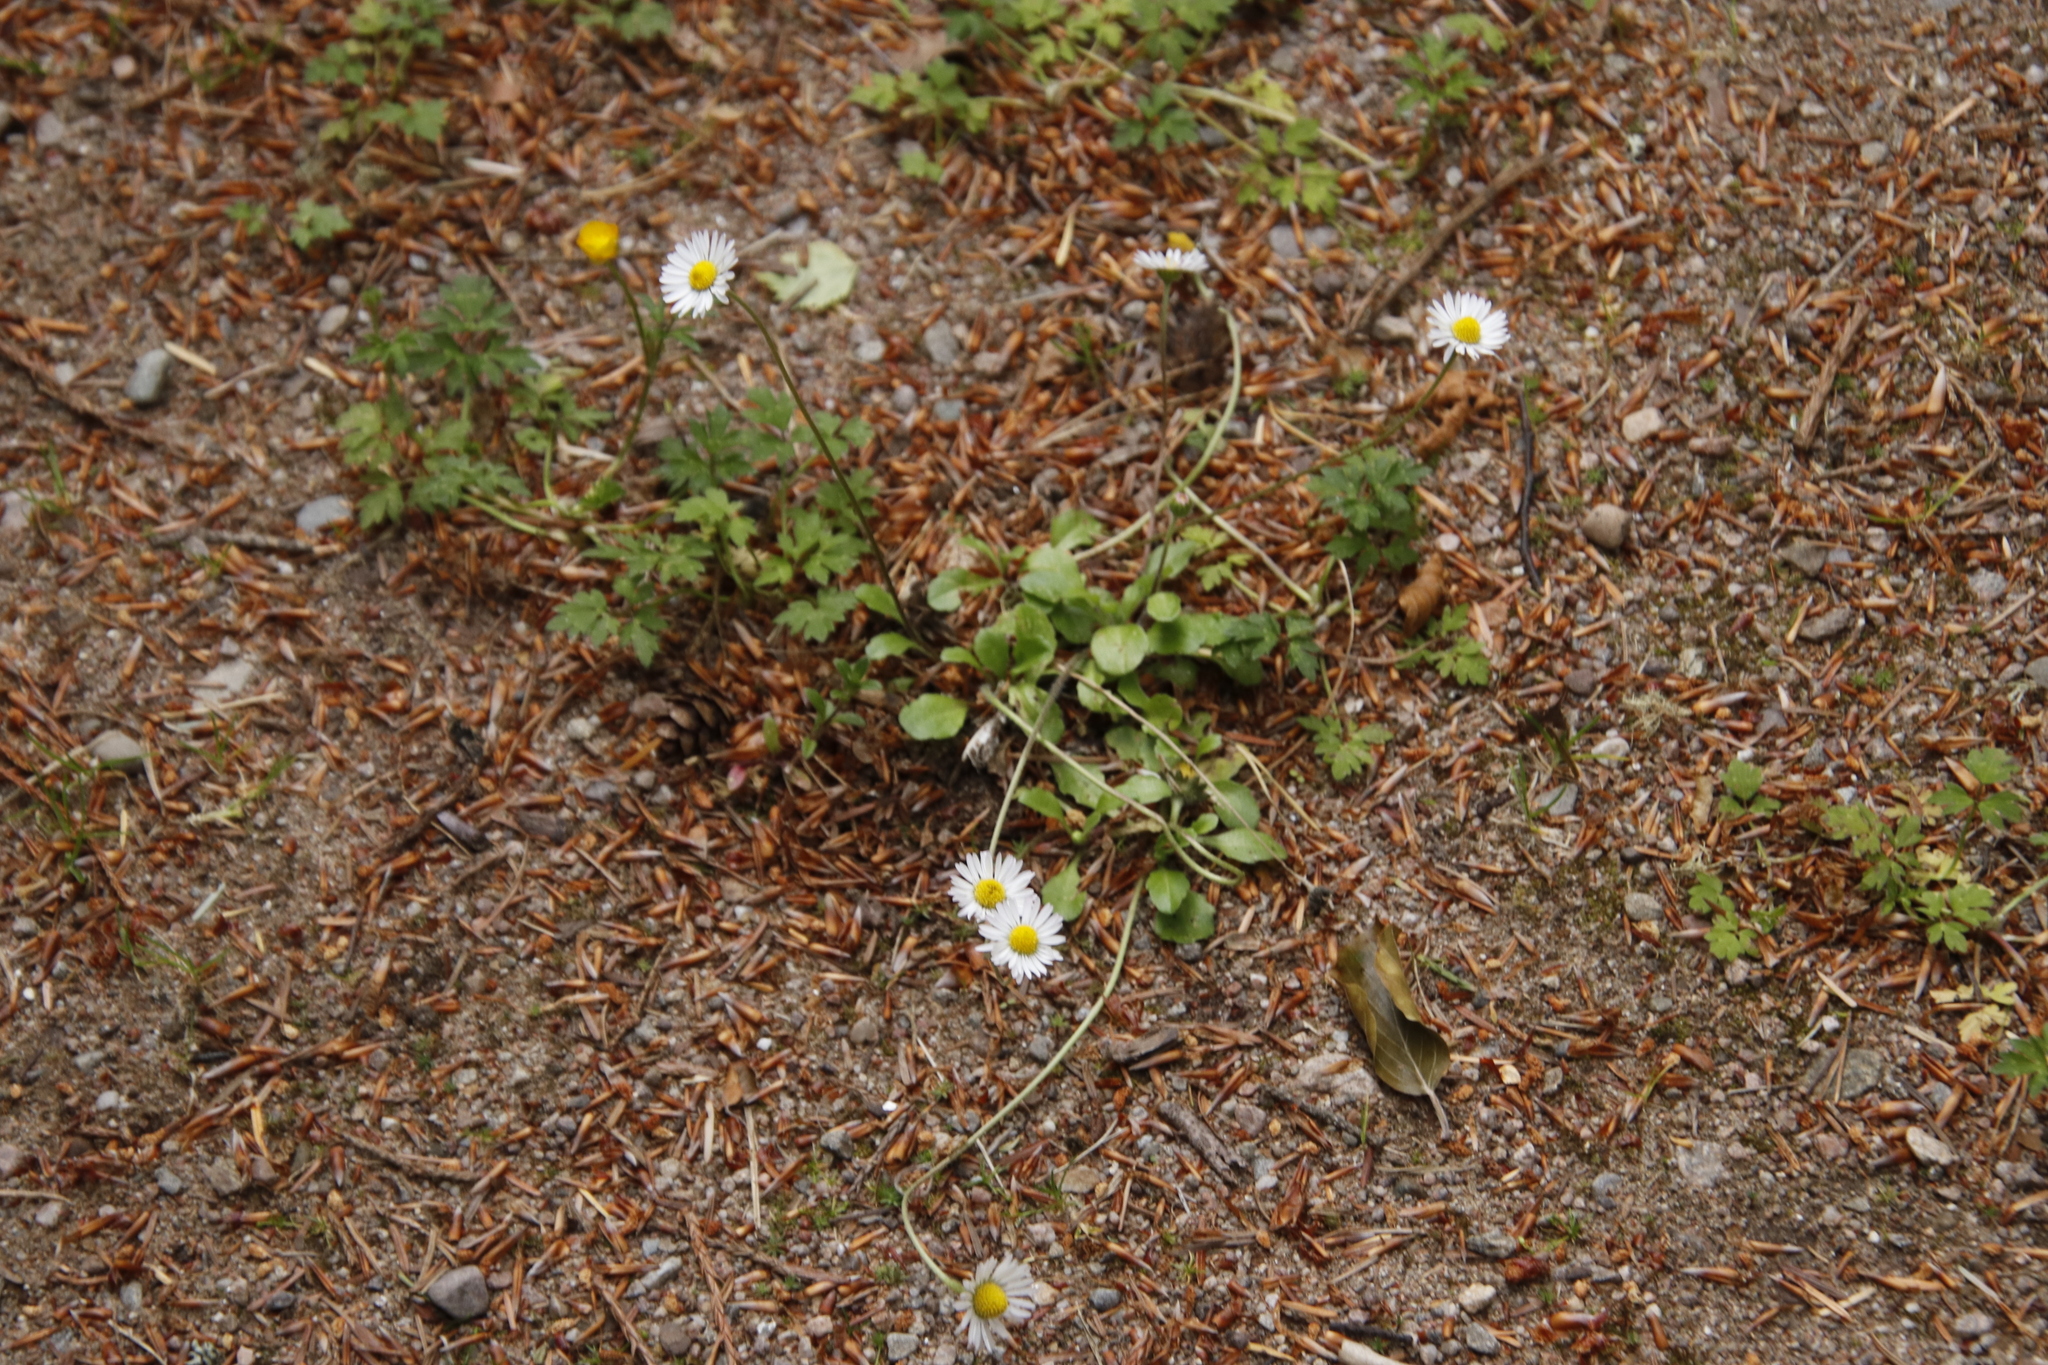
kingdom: Plantae
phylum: Tracheophyta
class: Magnoliopsida
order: Asterales
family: Asteraceae
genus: Bellis
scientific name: Bellis perennis
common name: Lawndaisy
